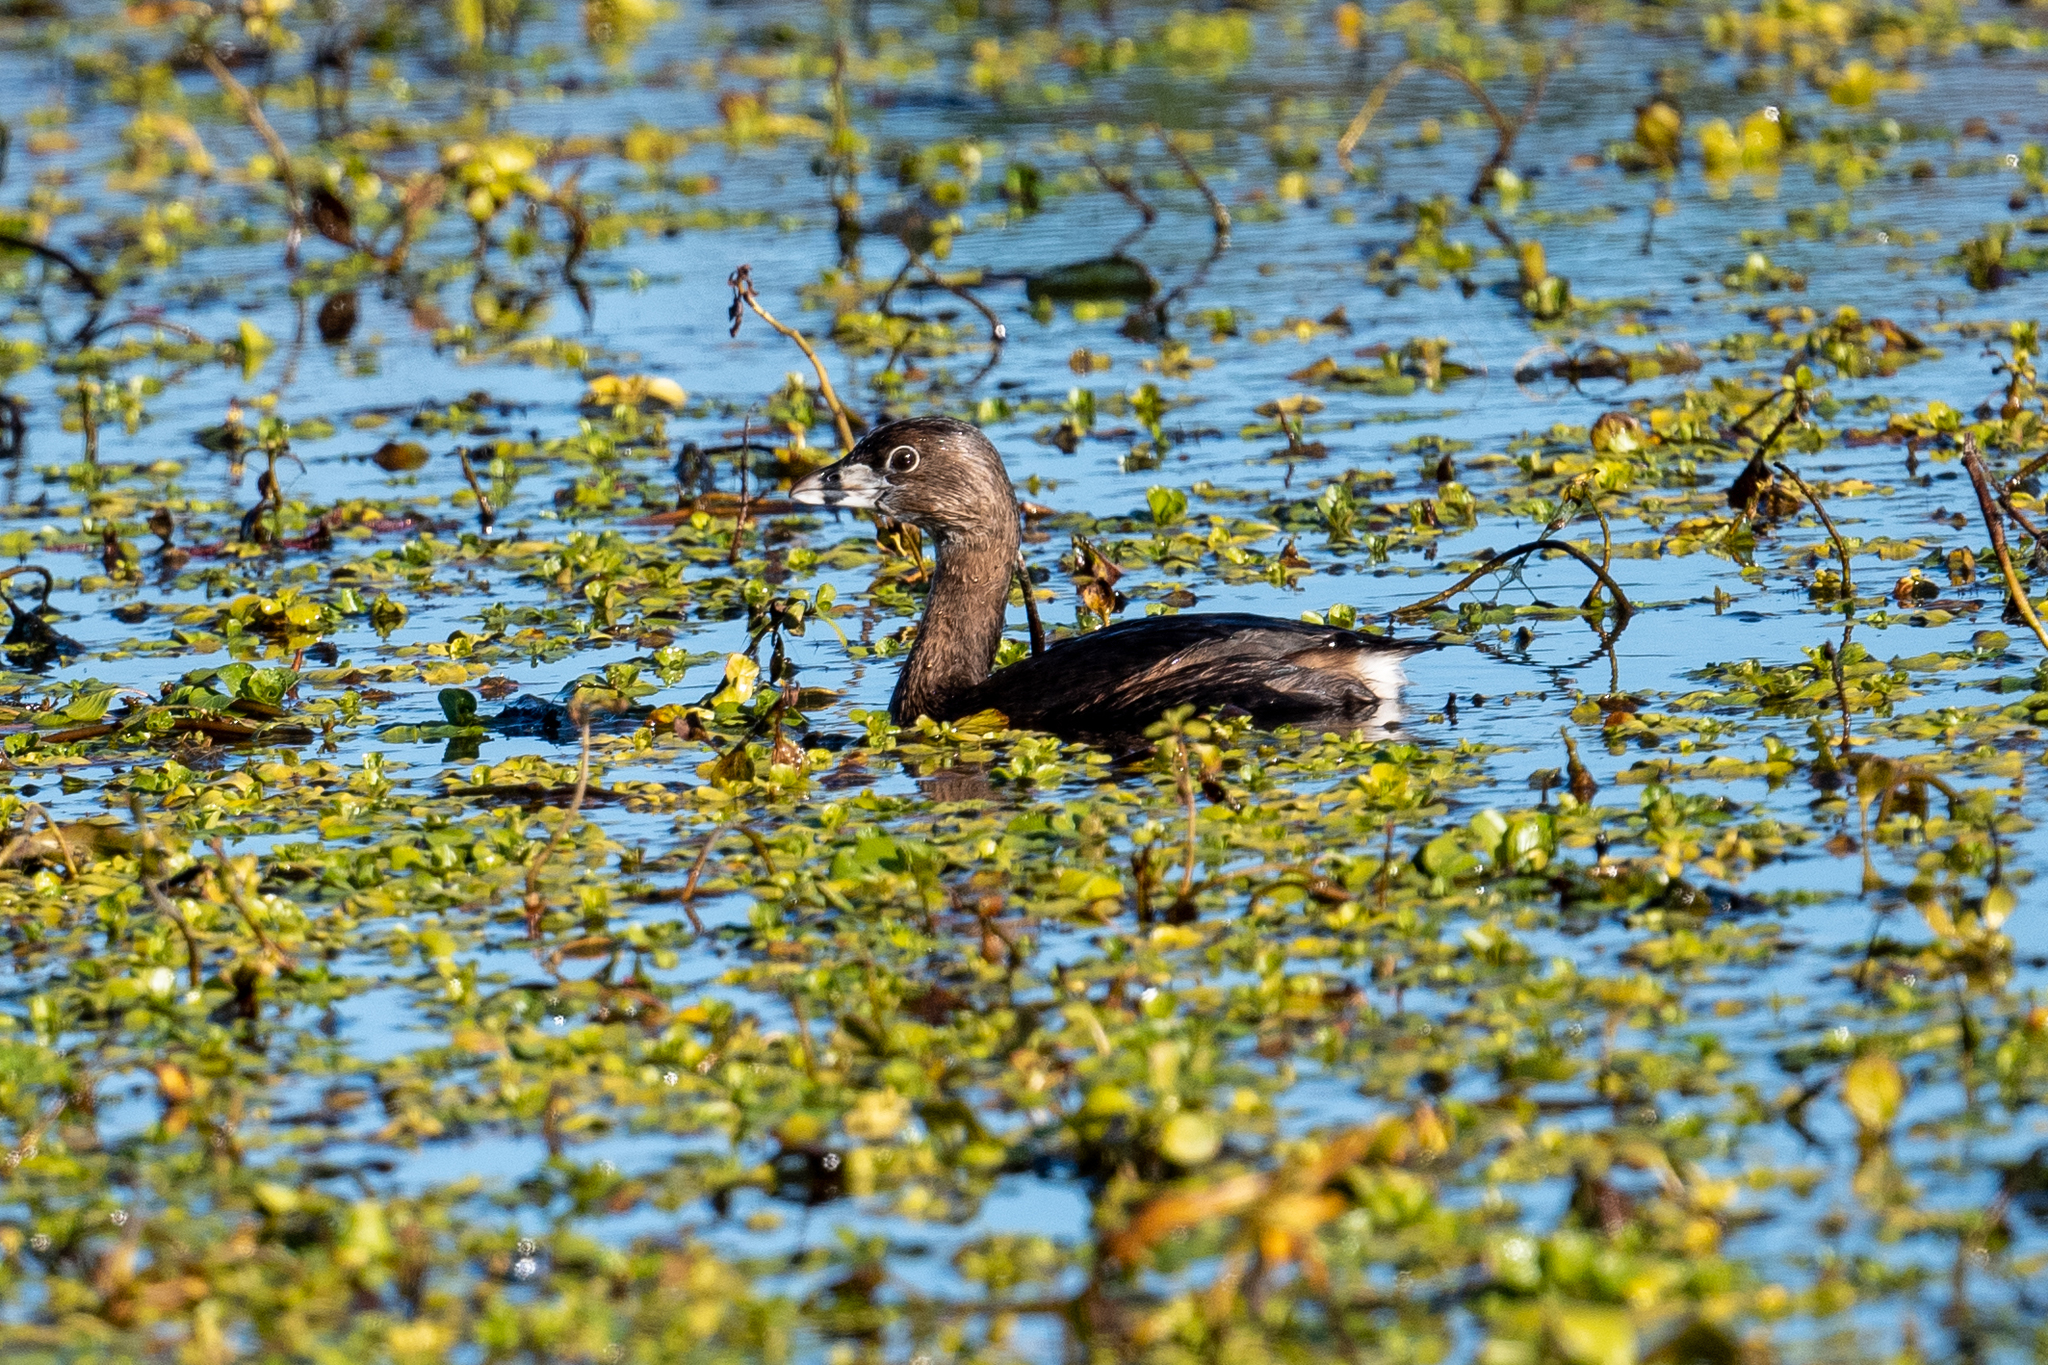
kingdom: Animalia
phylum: Chordata
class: Aves
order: Podicipediformes
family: Podicipedidae
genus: Podilymbus
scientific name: Podilymbus podiceps
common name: Pied-billed grebe
